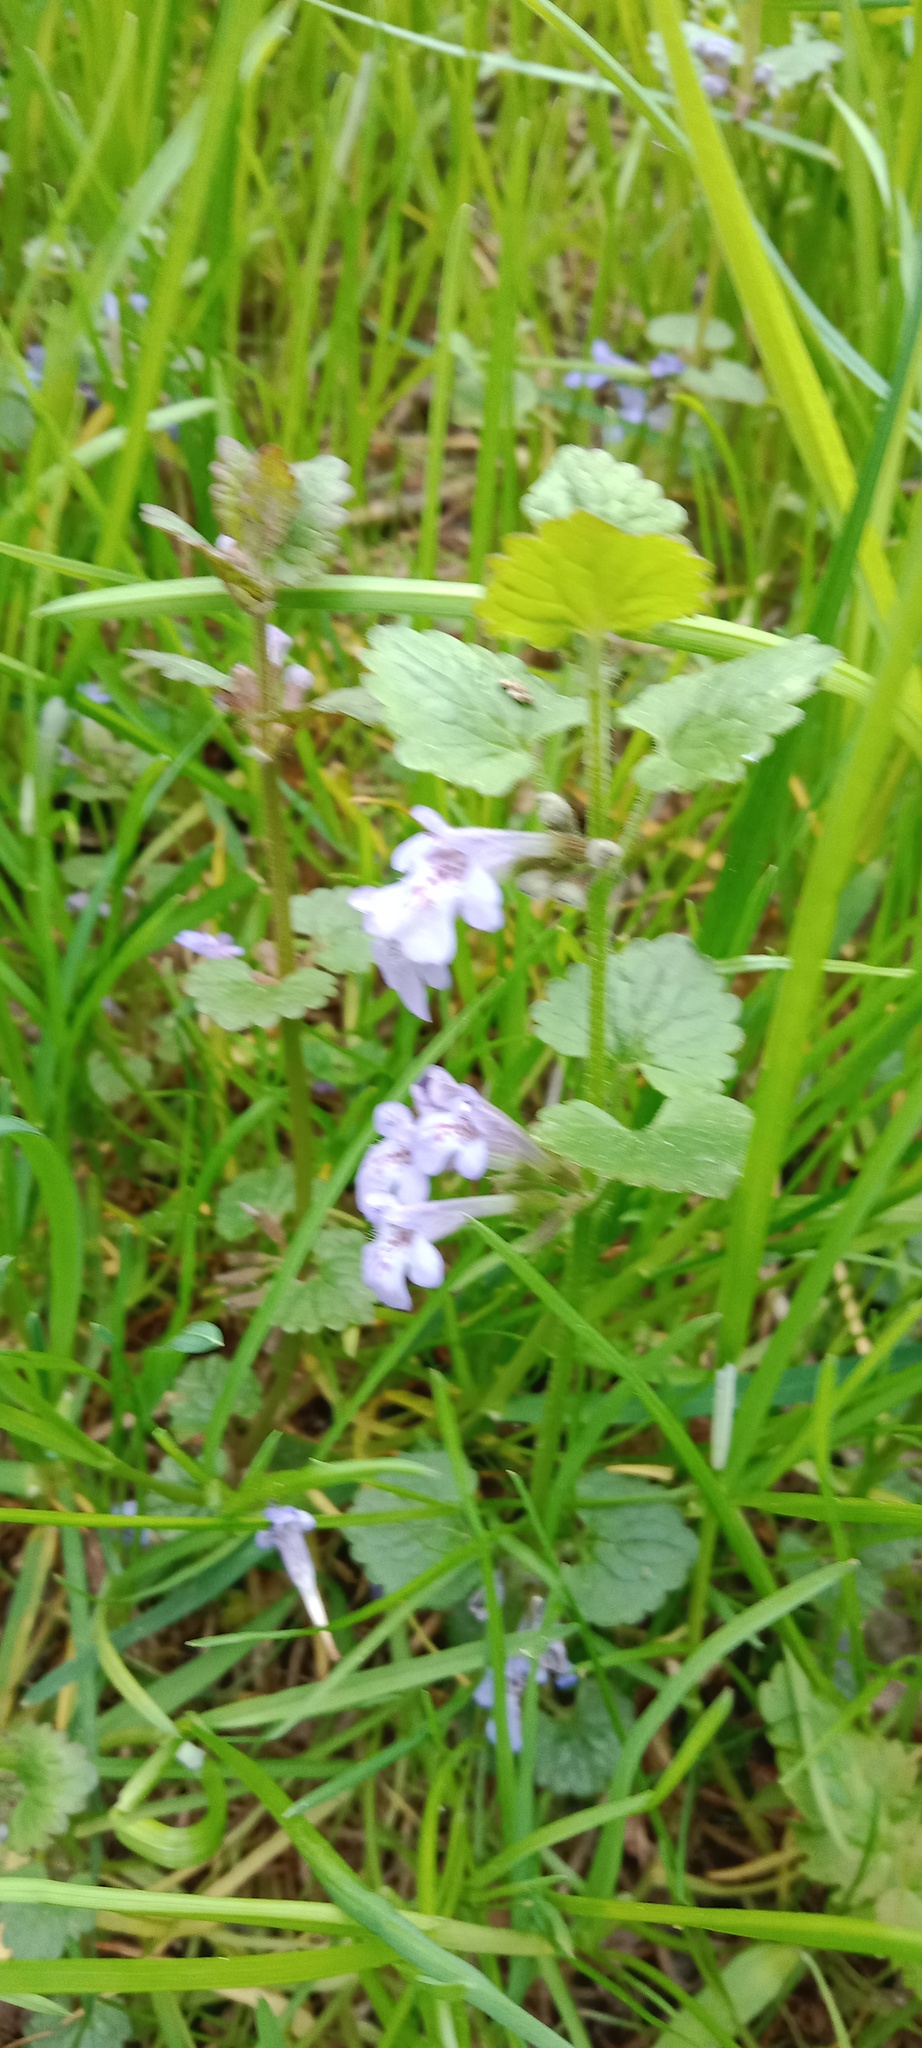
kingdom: Plantae
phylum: Tracheophyta
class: Magnoliopsida
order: Lamiales
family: Lamiaceae
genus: Glechoma
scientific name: Glechoma hederacea
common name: Ground ivy
